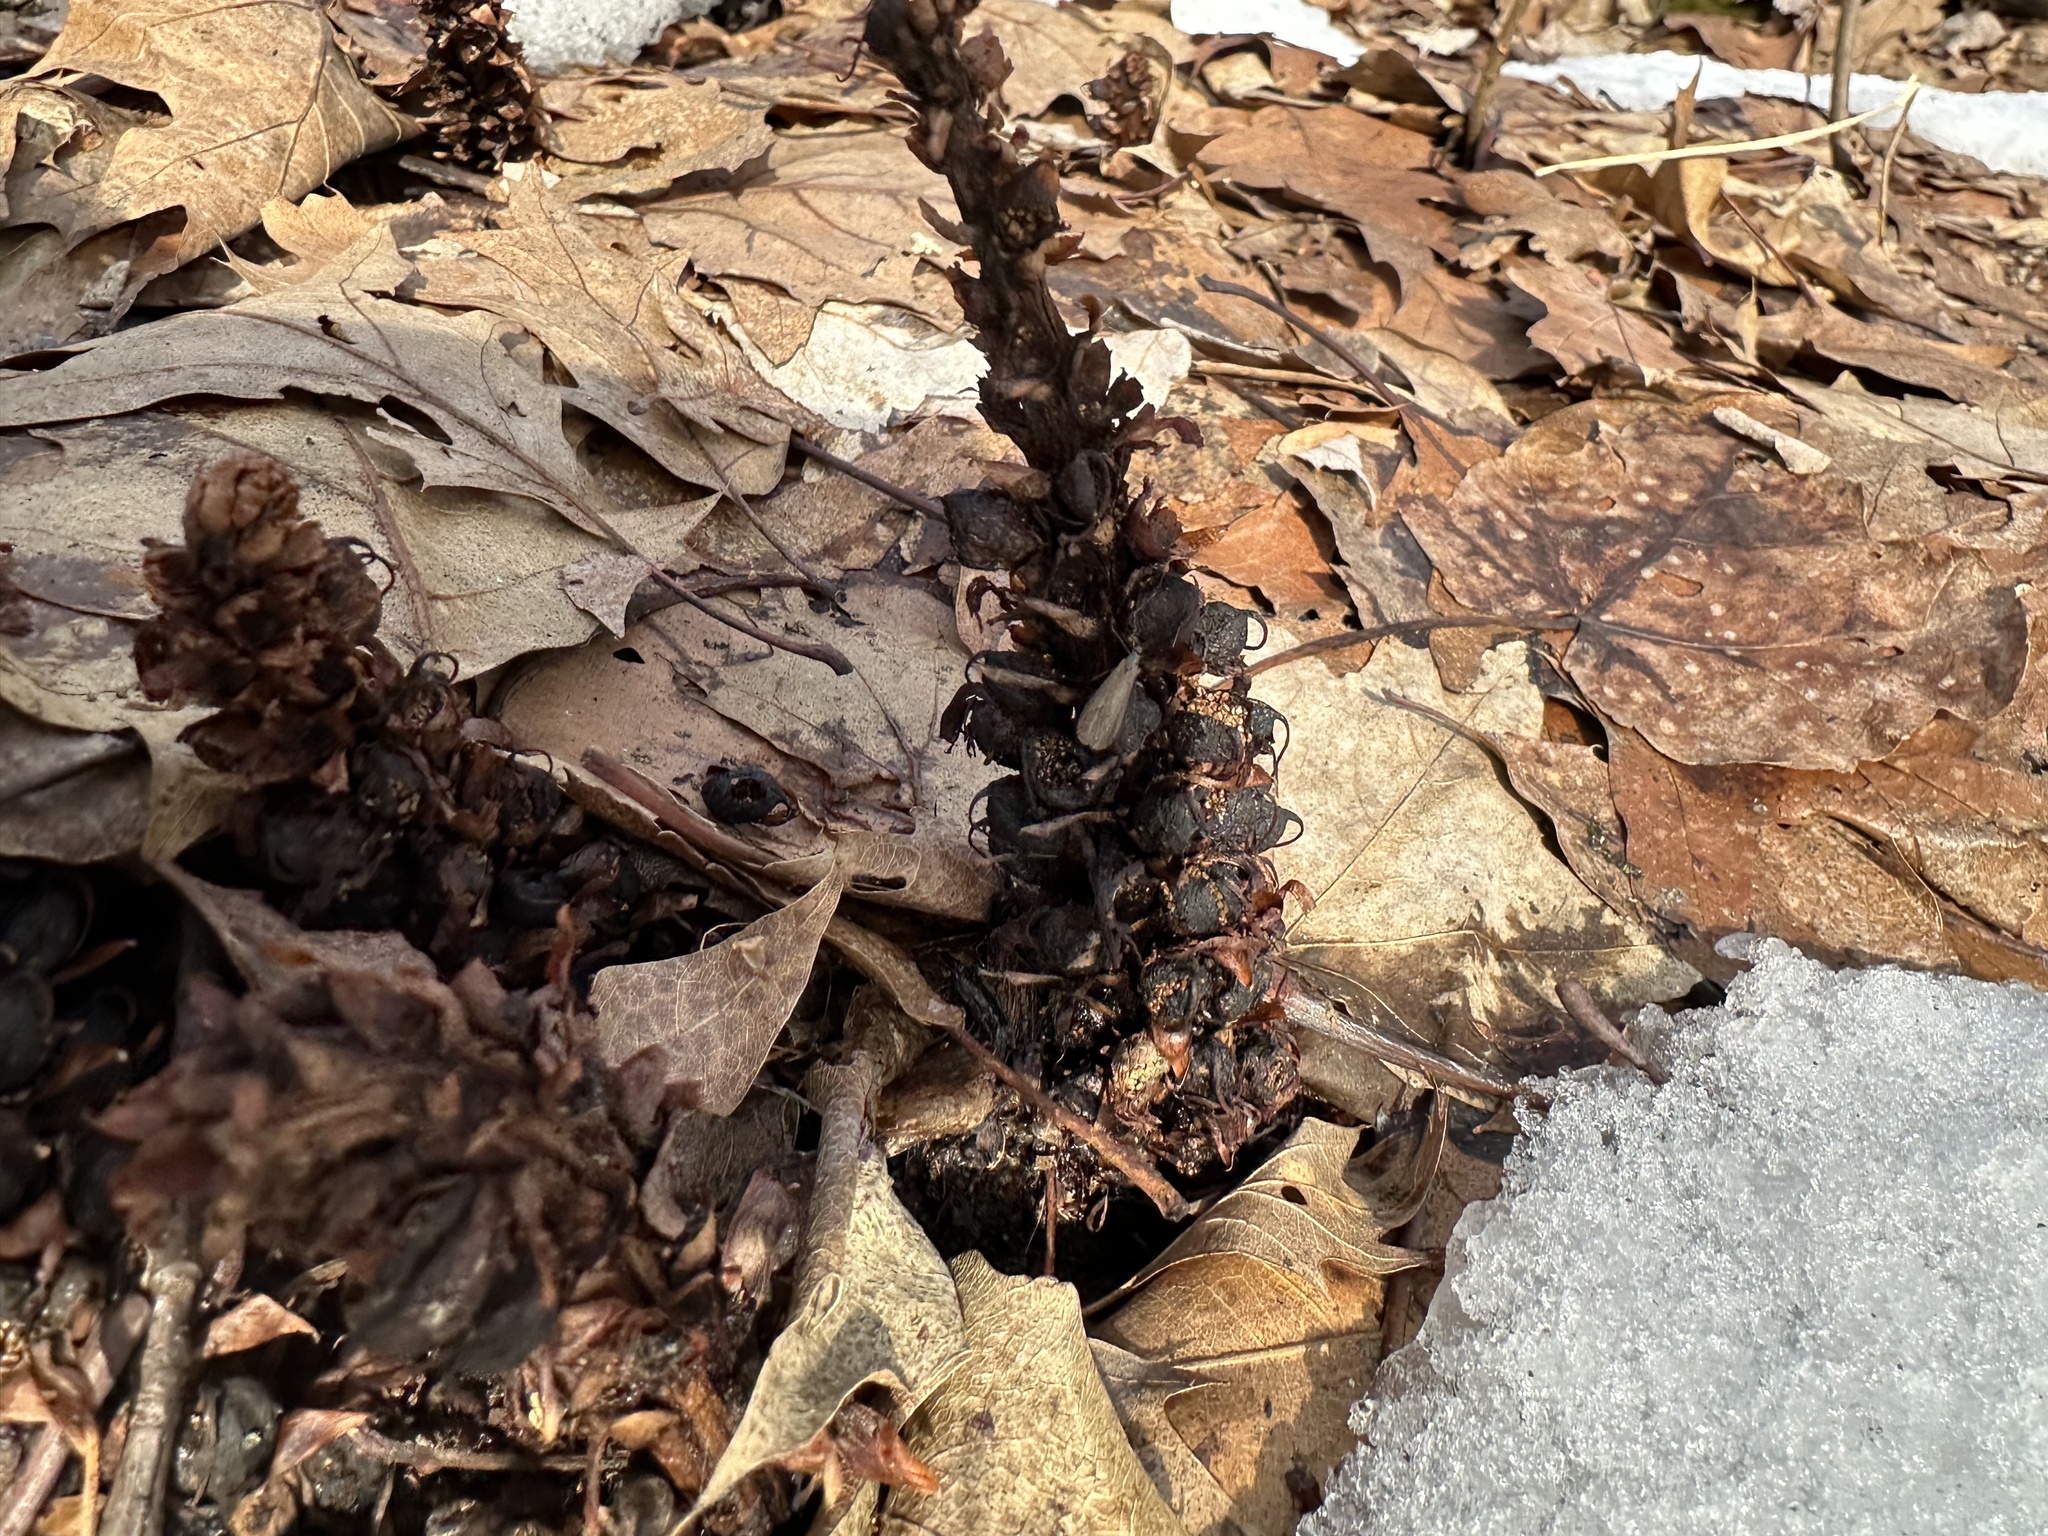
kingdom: Plantae
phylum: Tracheophyta
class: Magnoliopsida
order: Lamiales
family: Orobanchaceae
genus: Conopholis
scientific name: Conopholis americana
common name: American cancer-root
